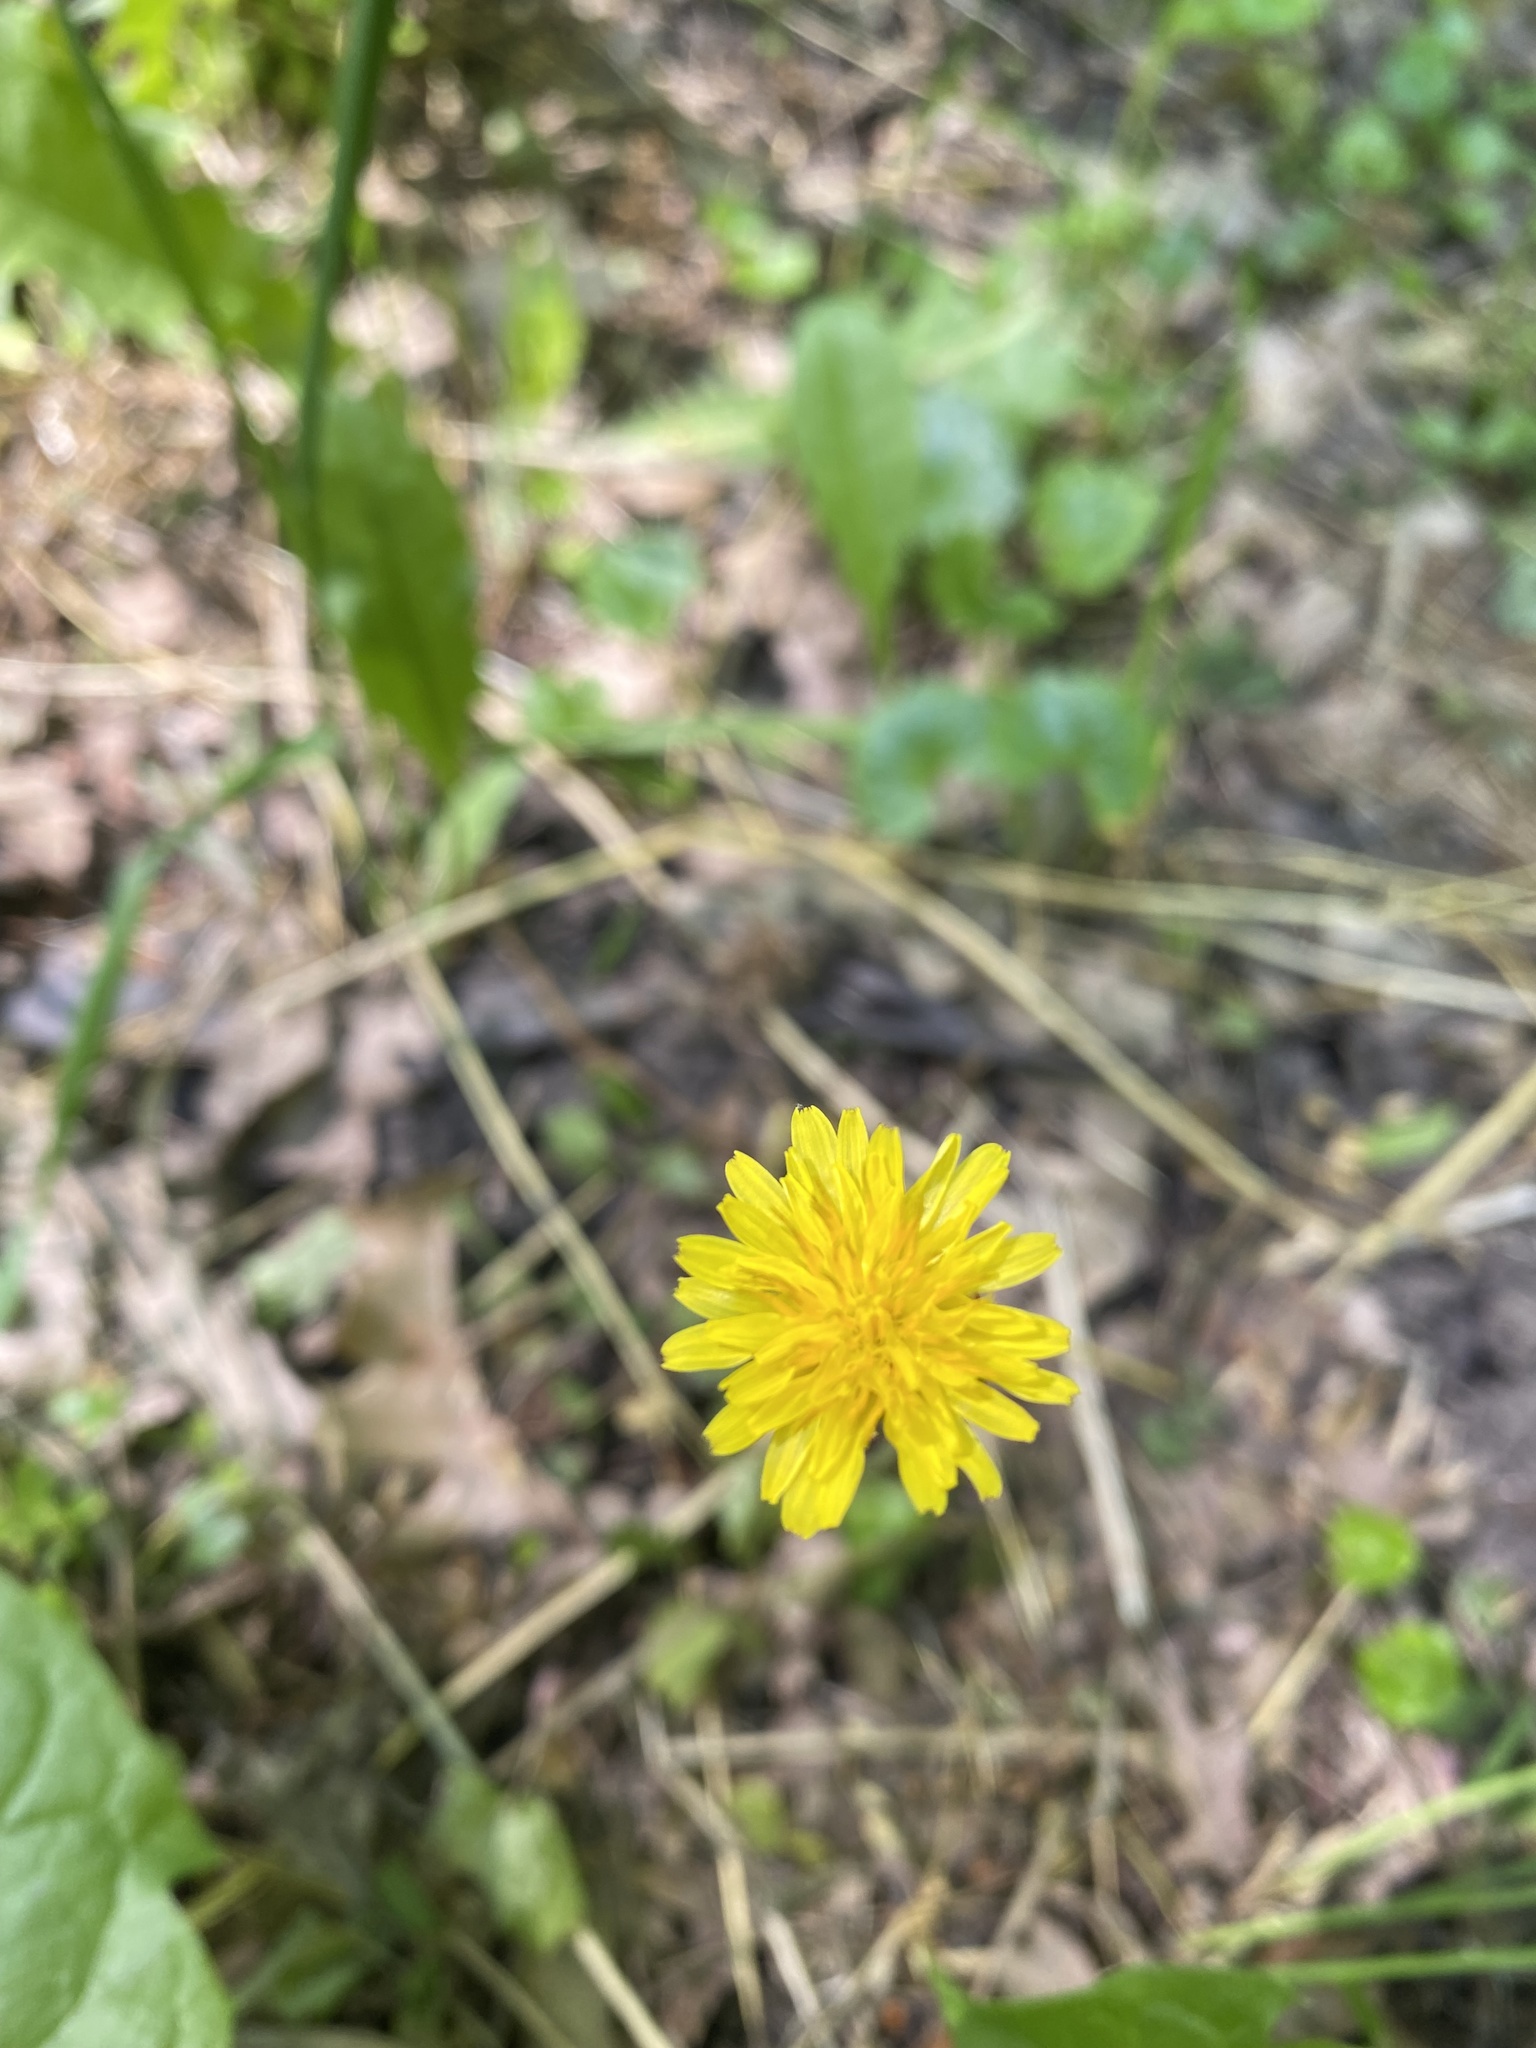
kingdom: Plantae
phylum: Tracheophyta
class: Magnoliopsida
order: Asterales
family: Asteraceae
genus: Taraxacum
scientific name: Taraxacum officinale
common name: Common dandelion
